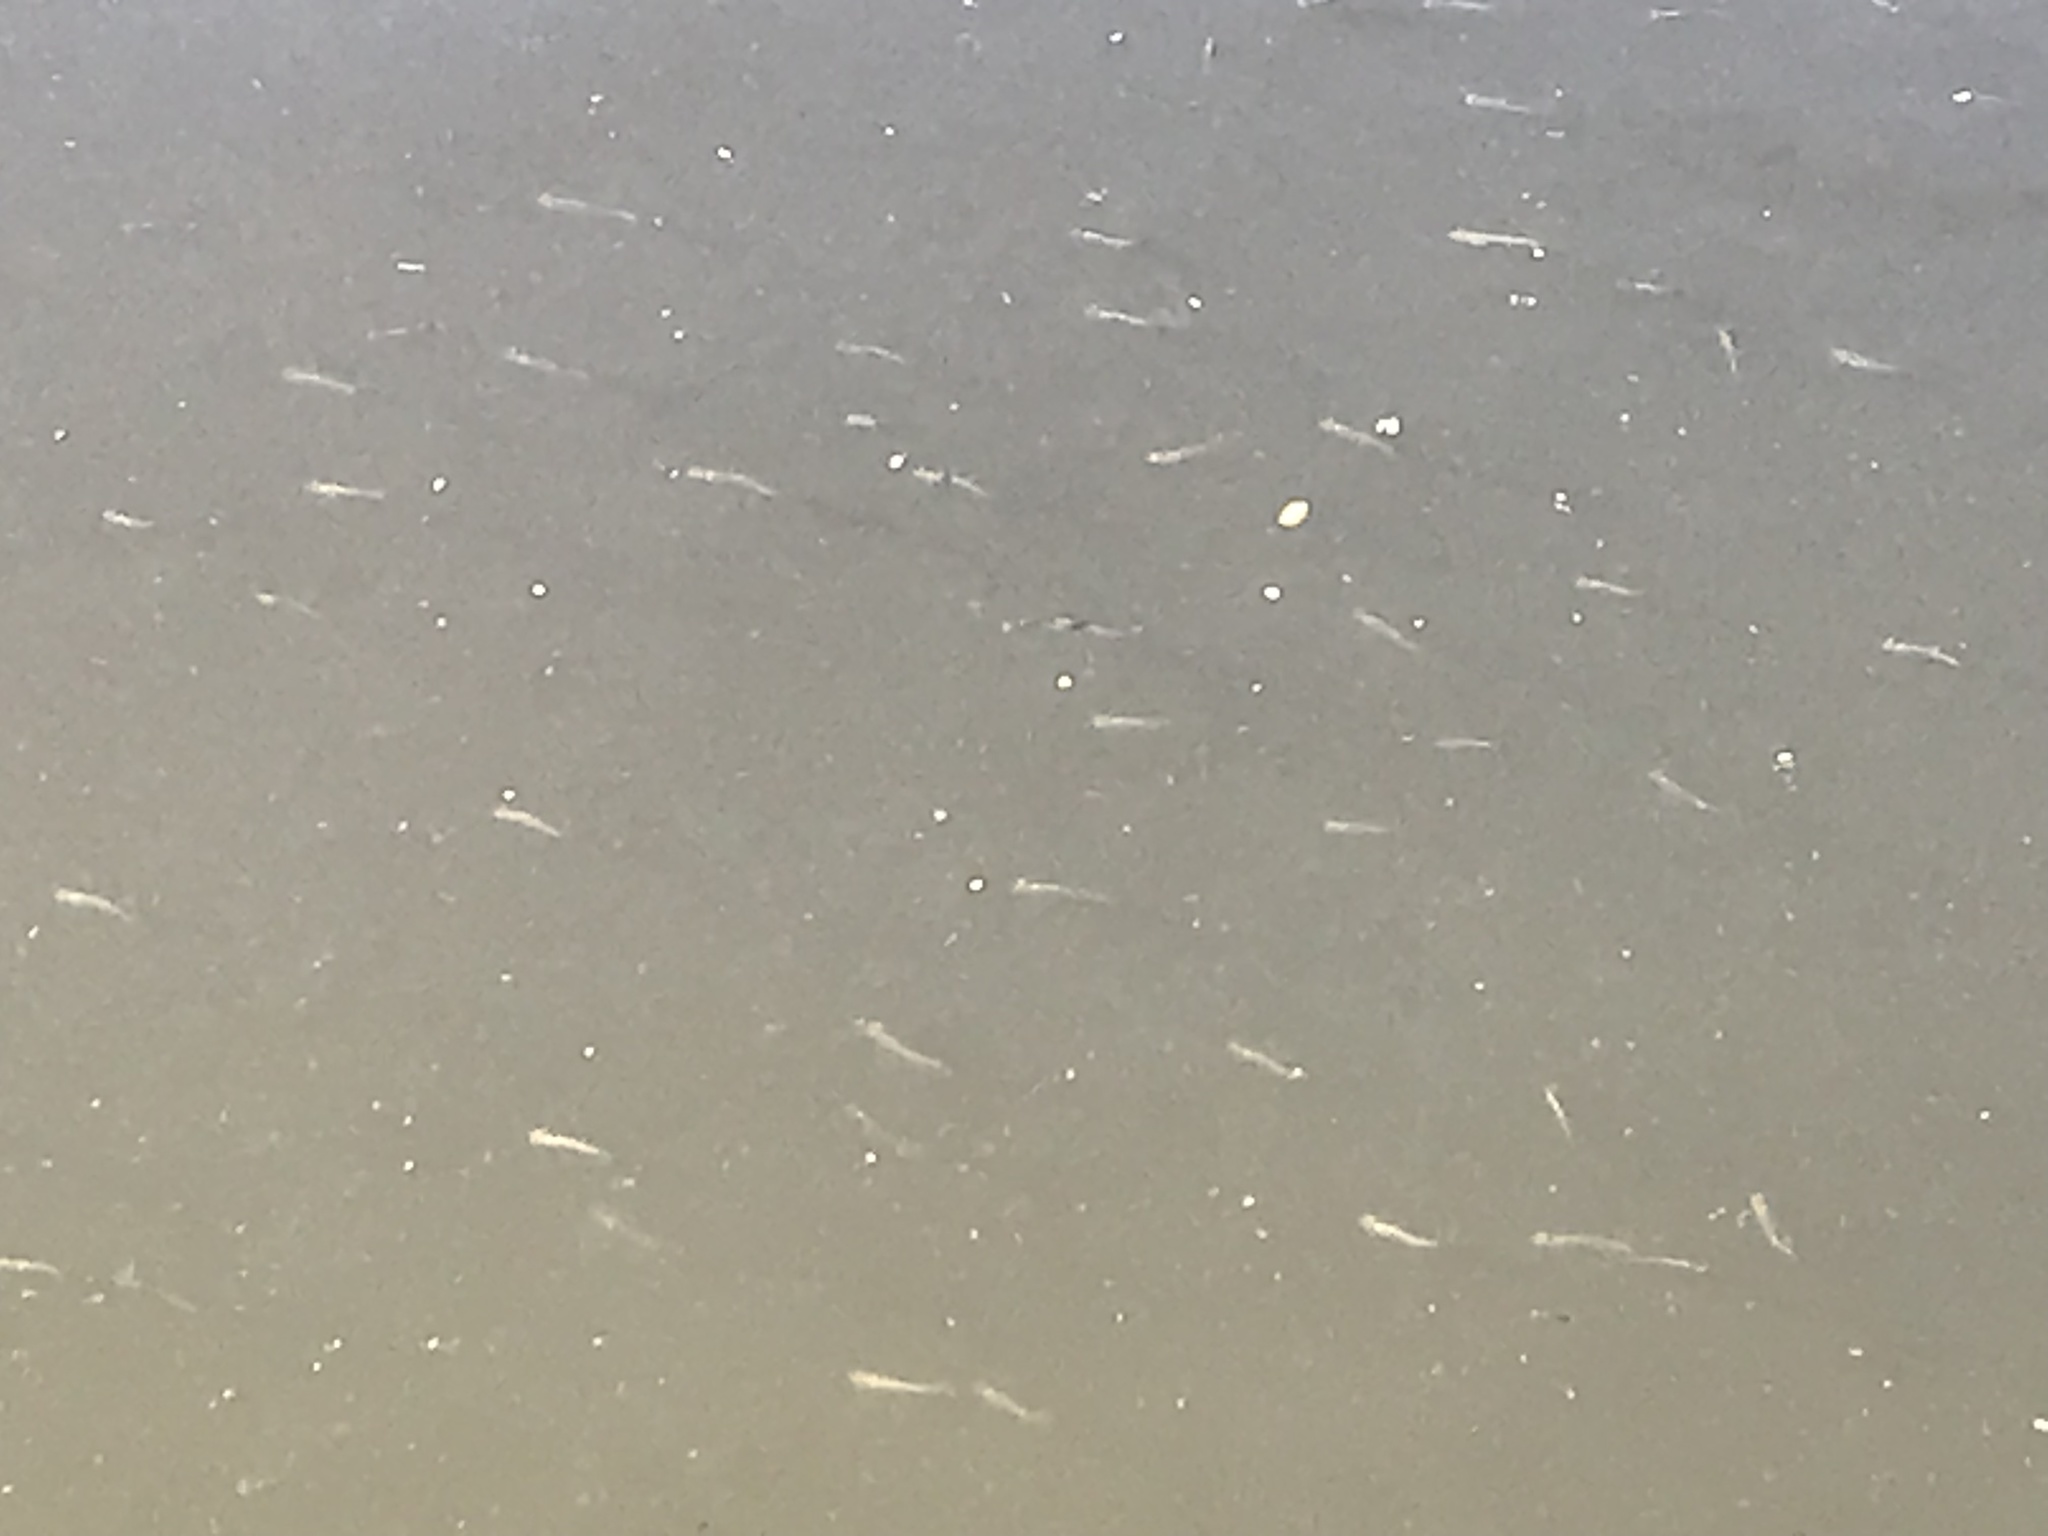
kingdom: Animalia
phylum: Chordata
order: Cyprinodontiformes
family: Poeciliidae
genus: Gambusia
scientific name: Gambusia holbrooki
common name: Eastern mosquitofish
